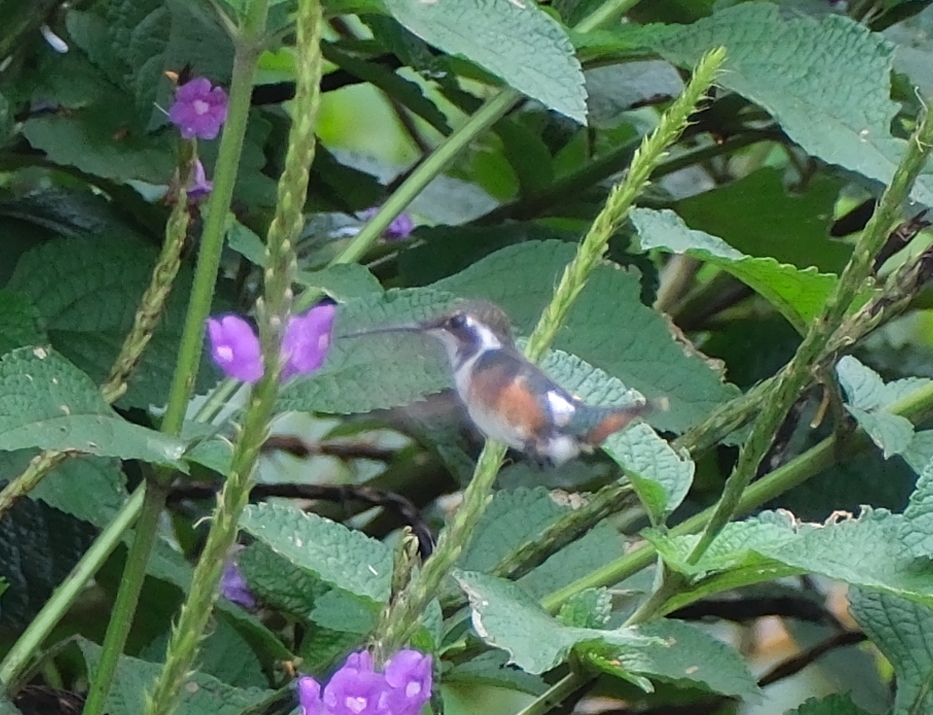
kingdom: Animalia
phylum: Chordata
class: Aves
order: Apodiformes
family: Trochilidae
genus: Chaetocercus
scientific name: Chaetocercus mulsant
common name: White-bellied woodstar
